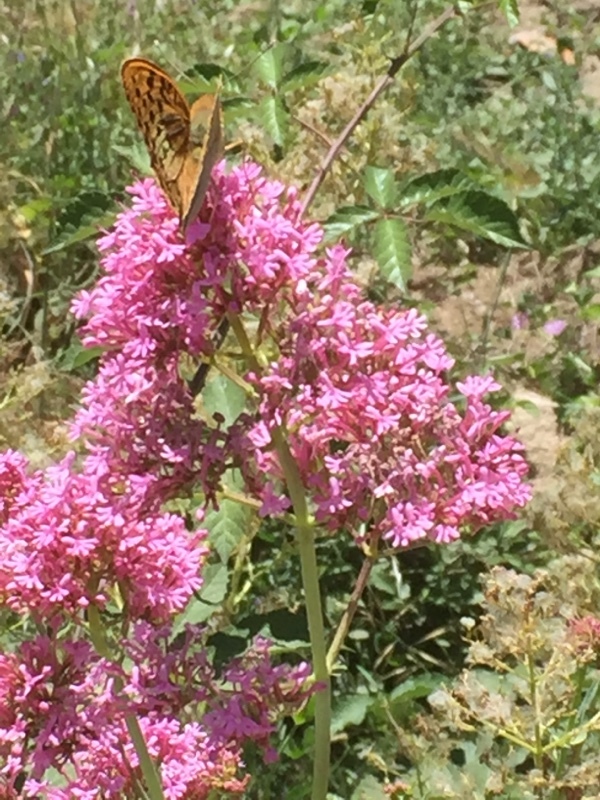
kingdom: Plantae
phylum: Tracheophyta
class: Magnoliopsida
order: Dipsacales
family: Caprifoliaceae
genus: Centranthus
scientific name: Centranthus ruber
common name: Red valerian
